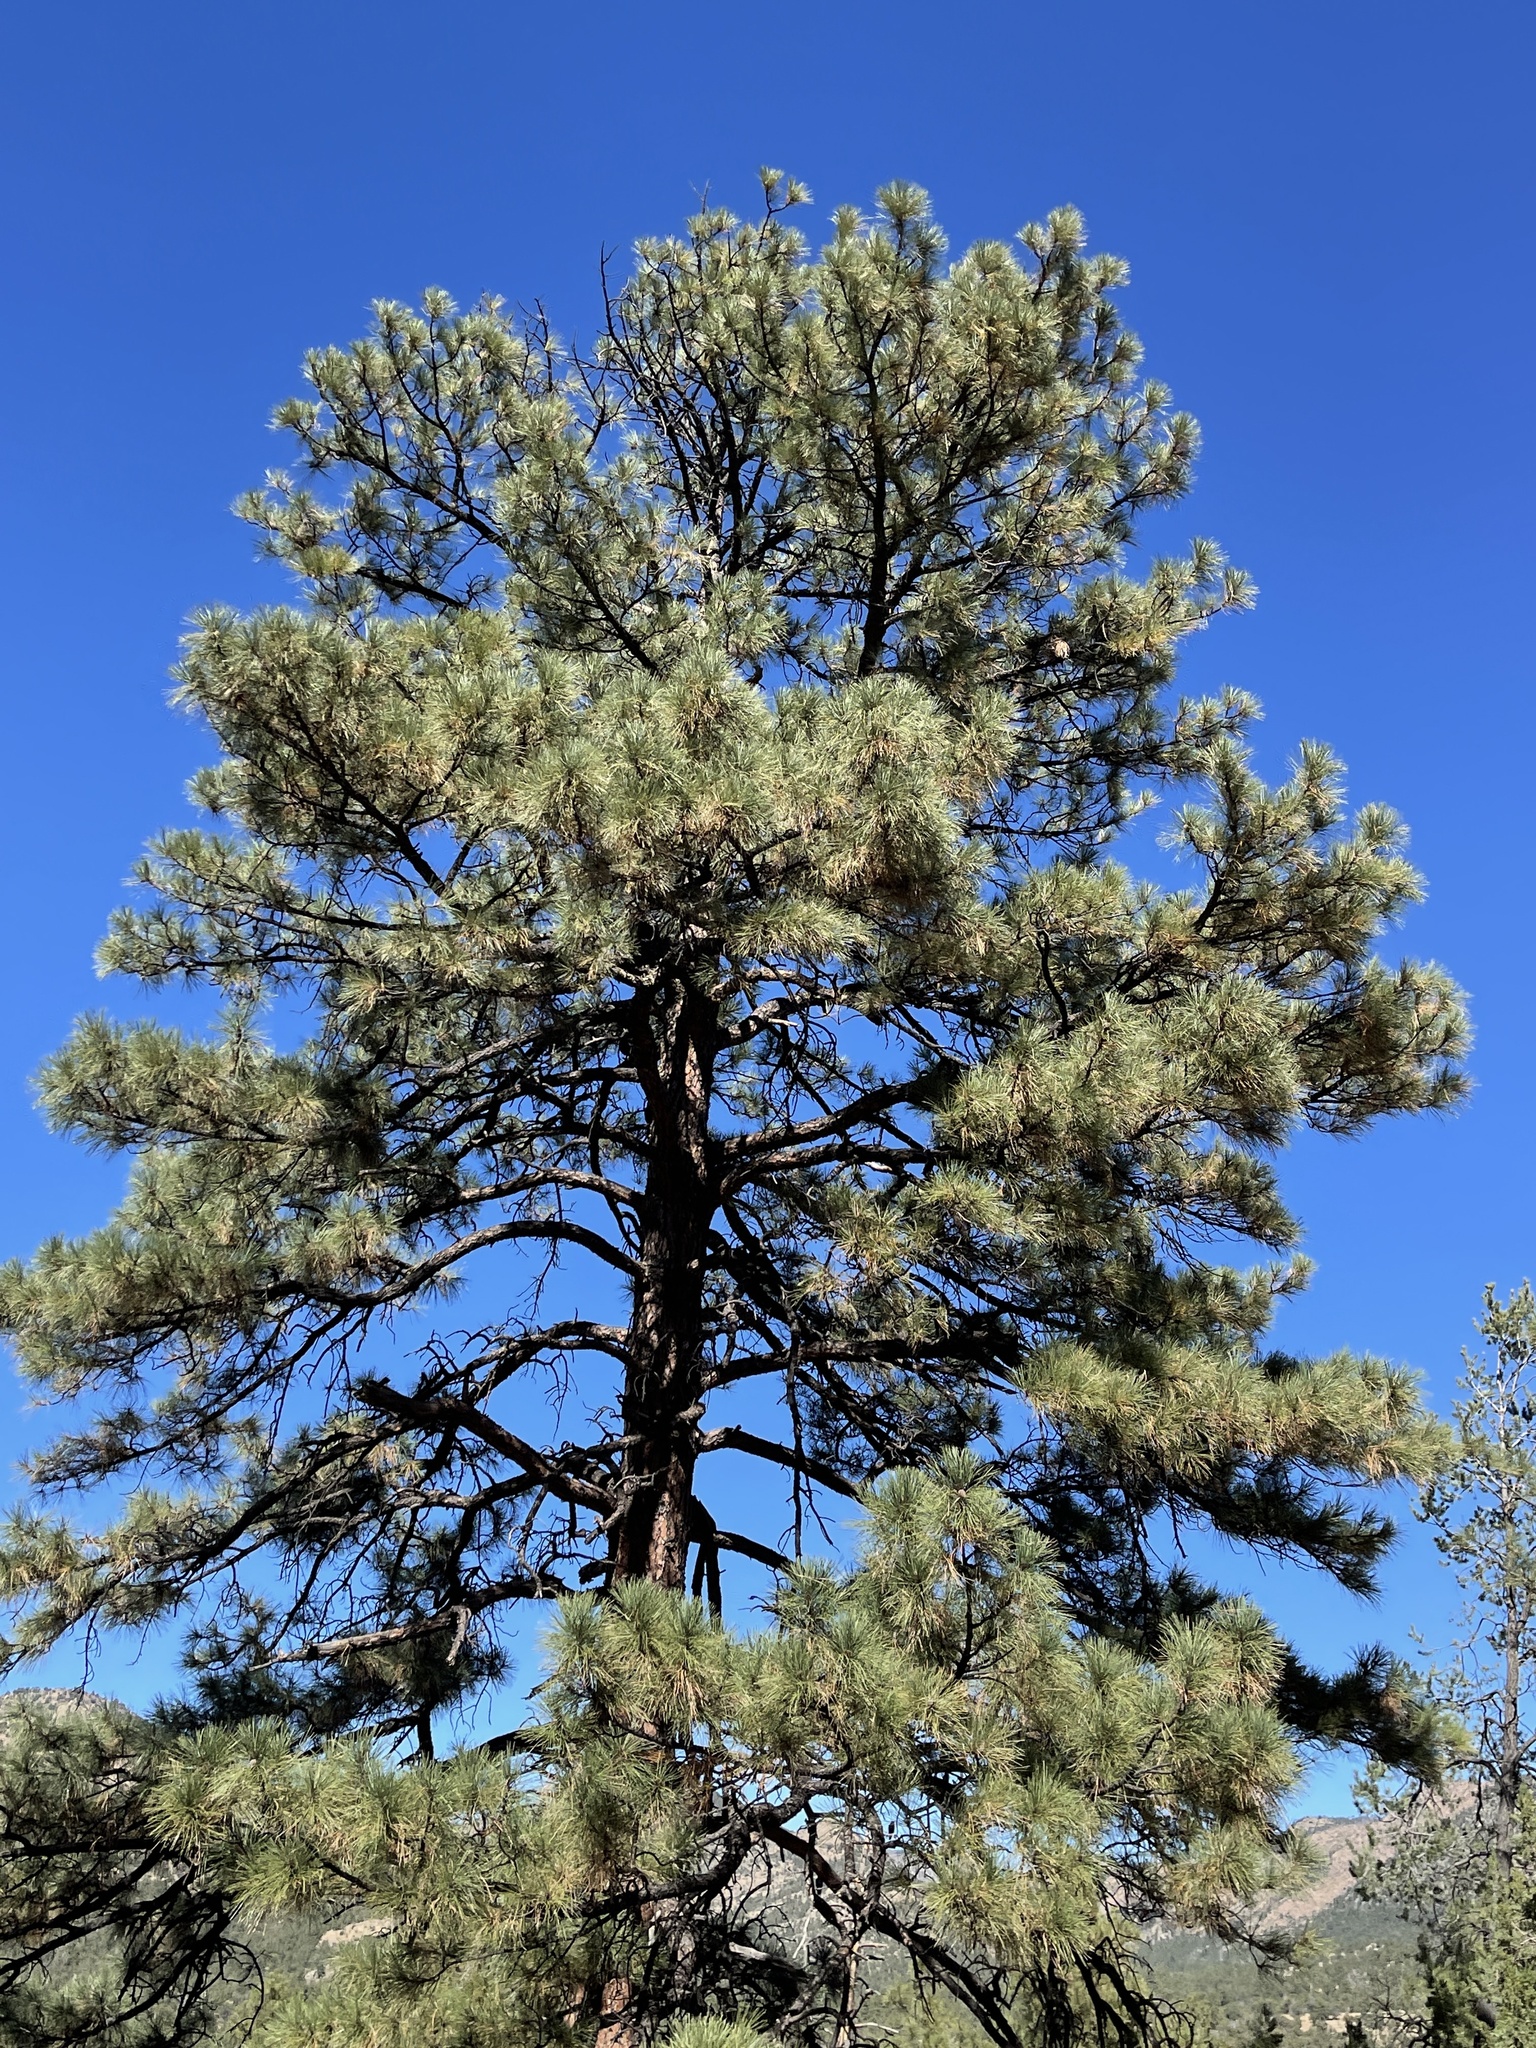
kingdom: Plantae
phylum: Tracheophyta
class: Pinopsida
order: Pinales
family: Pinaceae
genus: Pinus
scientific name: Pinus ponderosa
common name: Western yellow-pine
